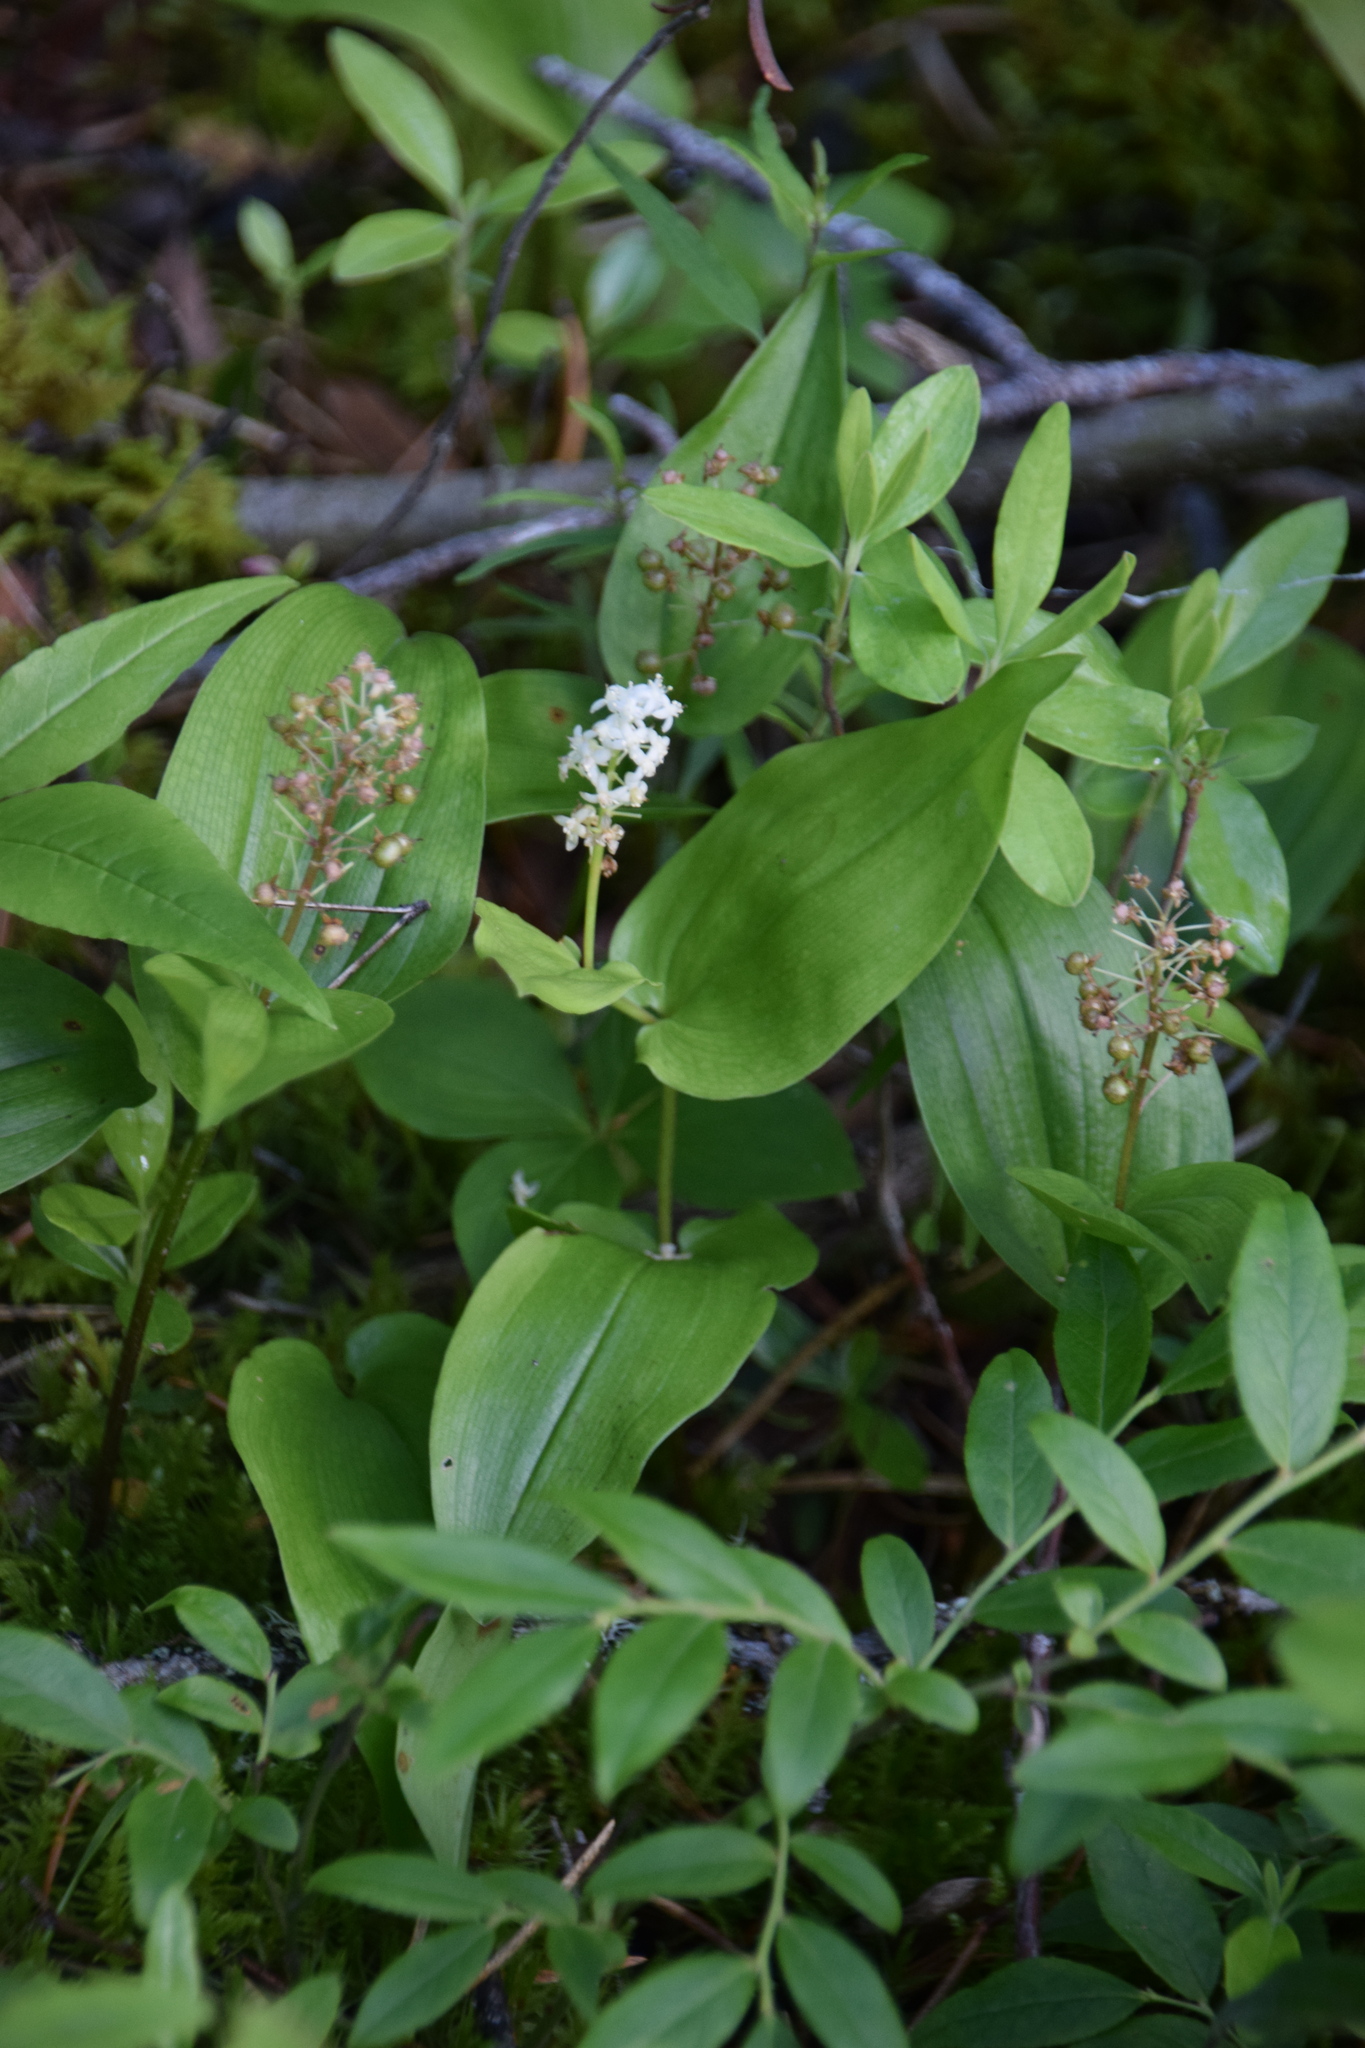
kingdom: Plantae
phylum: Tracheophyta
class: Liliopsida
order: Asparagales
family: Asparagaceae
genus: Maianthemum
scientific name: Maianthemum canadense
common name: False lily-of-the-valley
